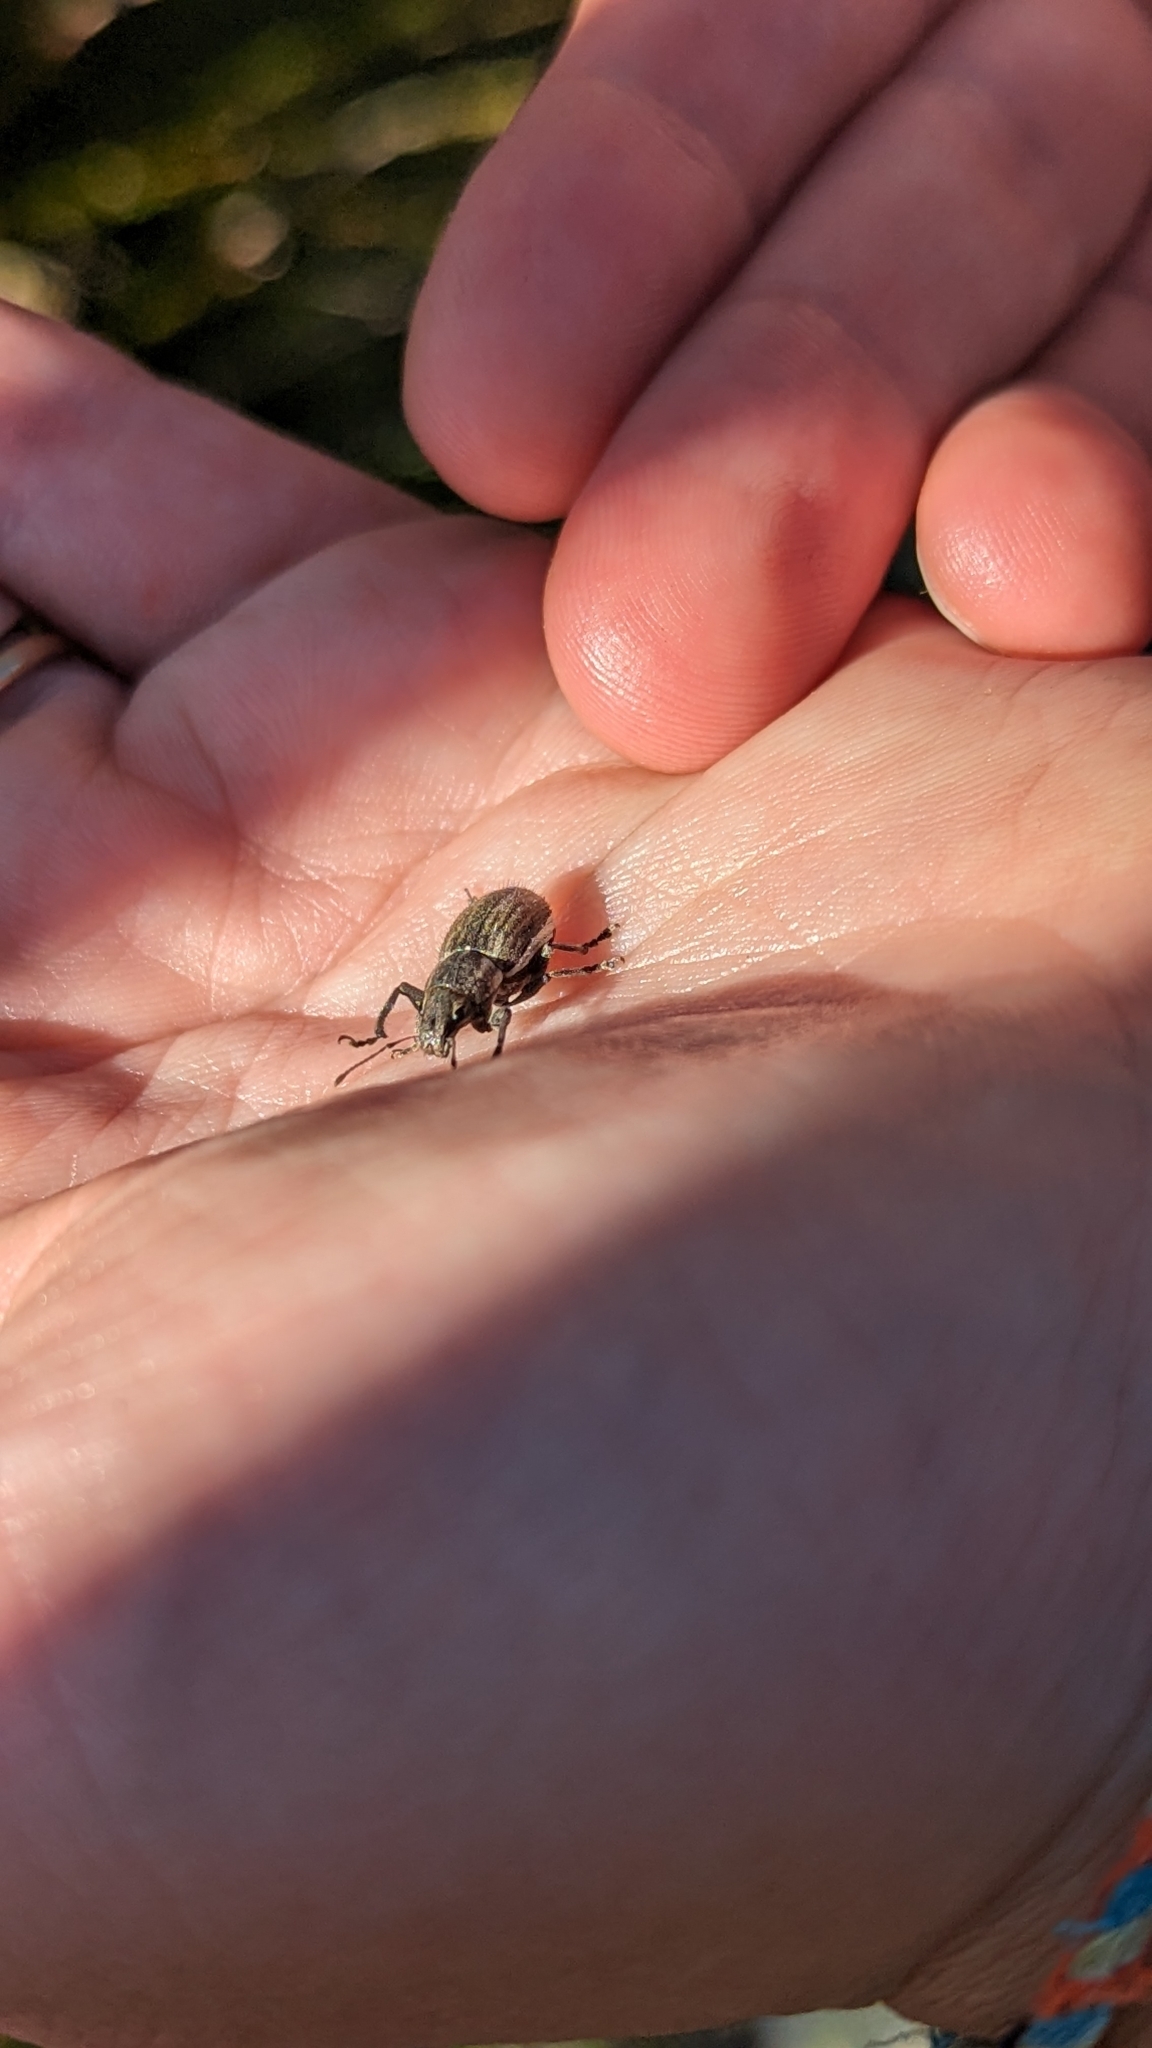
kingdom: Animalia
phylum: Arthropoda
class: Insecta
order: Coleoptera
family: Curculionidae
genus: Naupactus
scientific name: Naupactus leucoloma
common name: Whitefringed beetle
